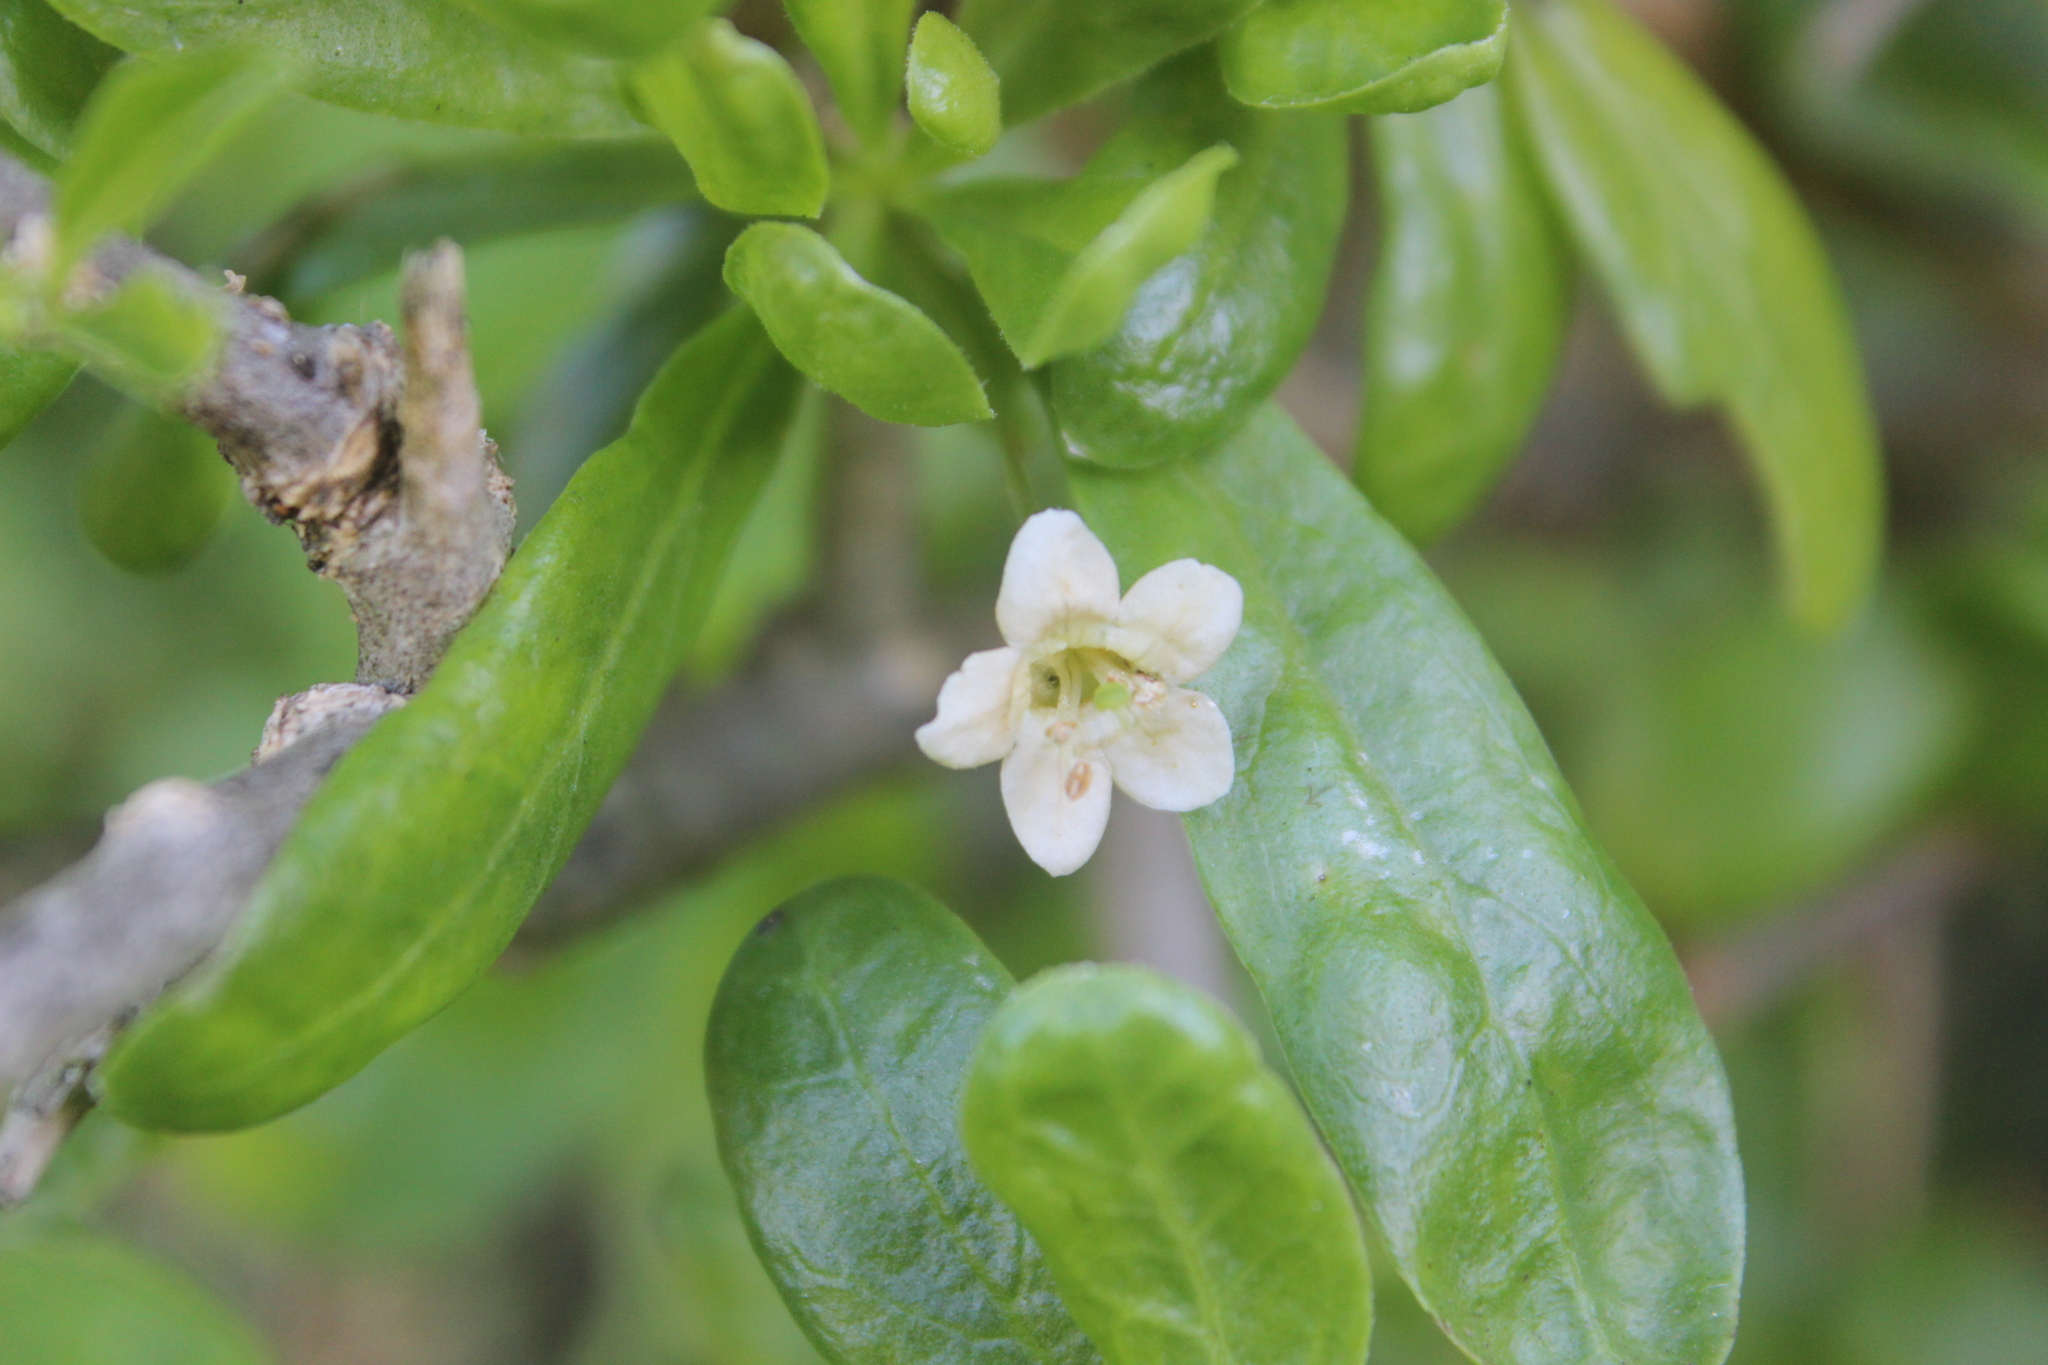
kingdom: Plantae
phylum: Tracheophyta
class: Magnoliopsida
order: Solanales
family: Solanaceae
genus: Lycium
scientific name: Lycium ferocissimum
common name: African boxthorn
